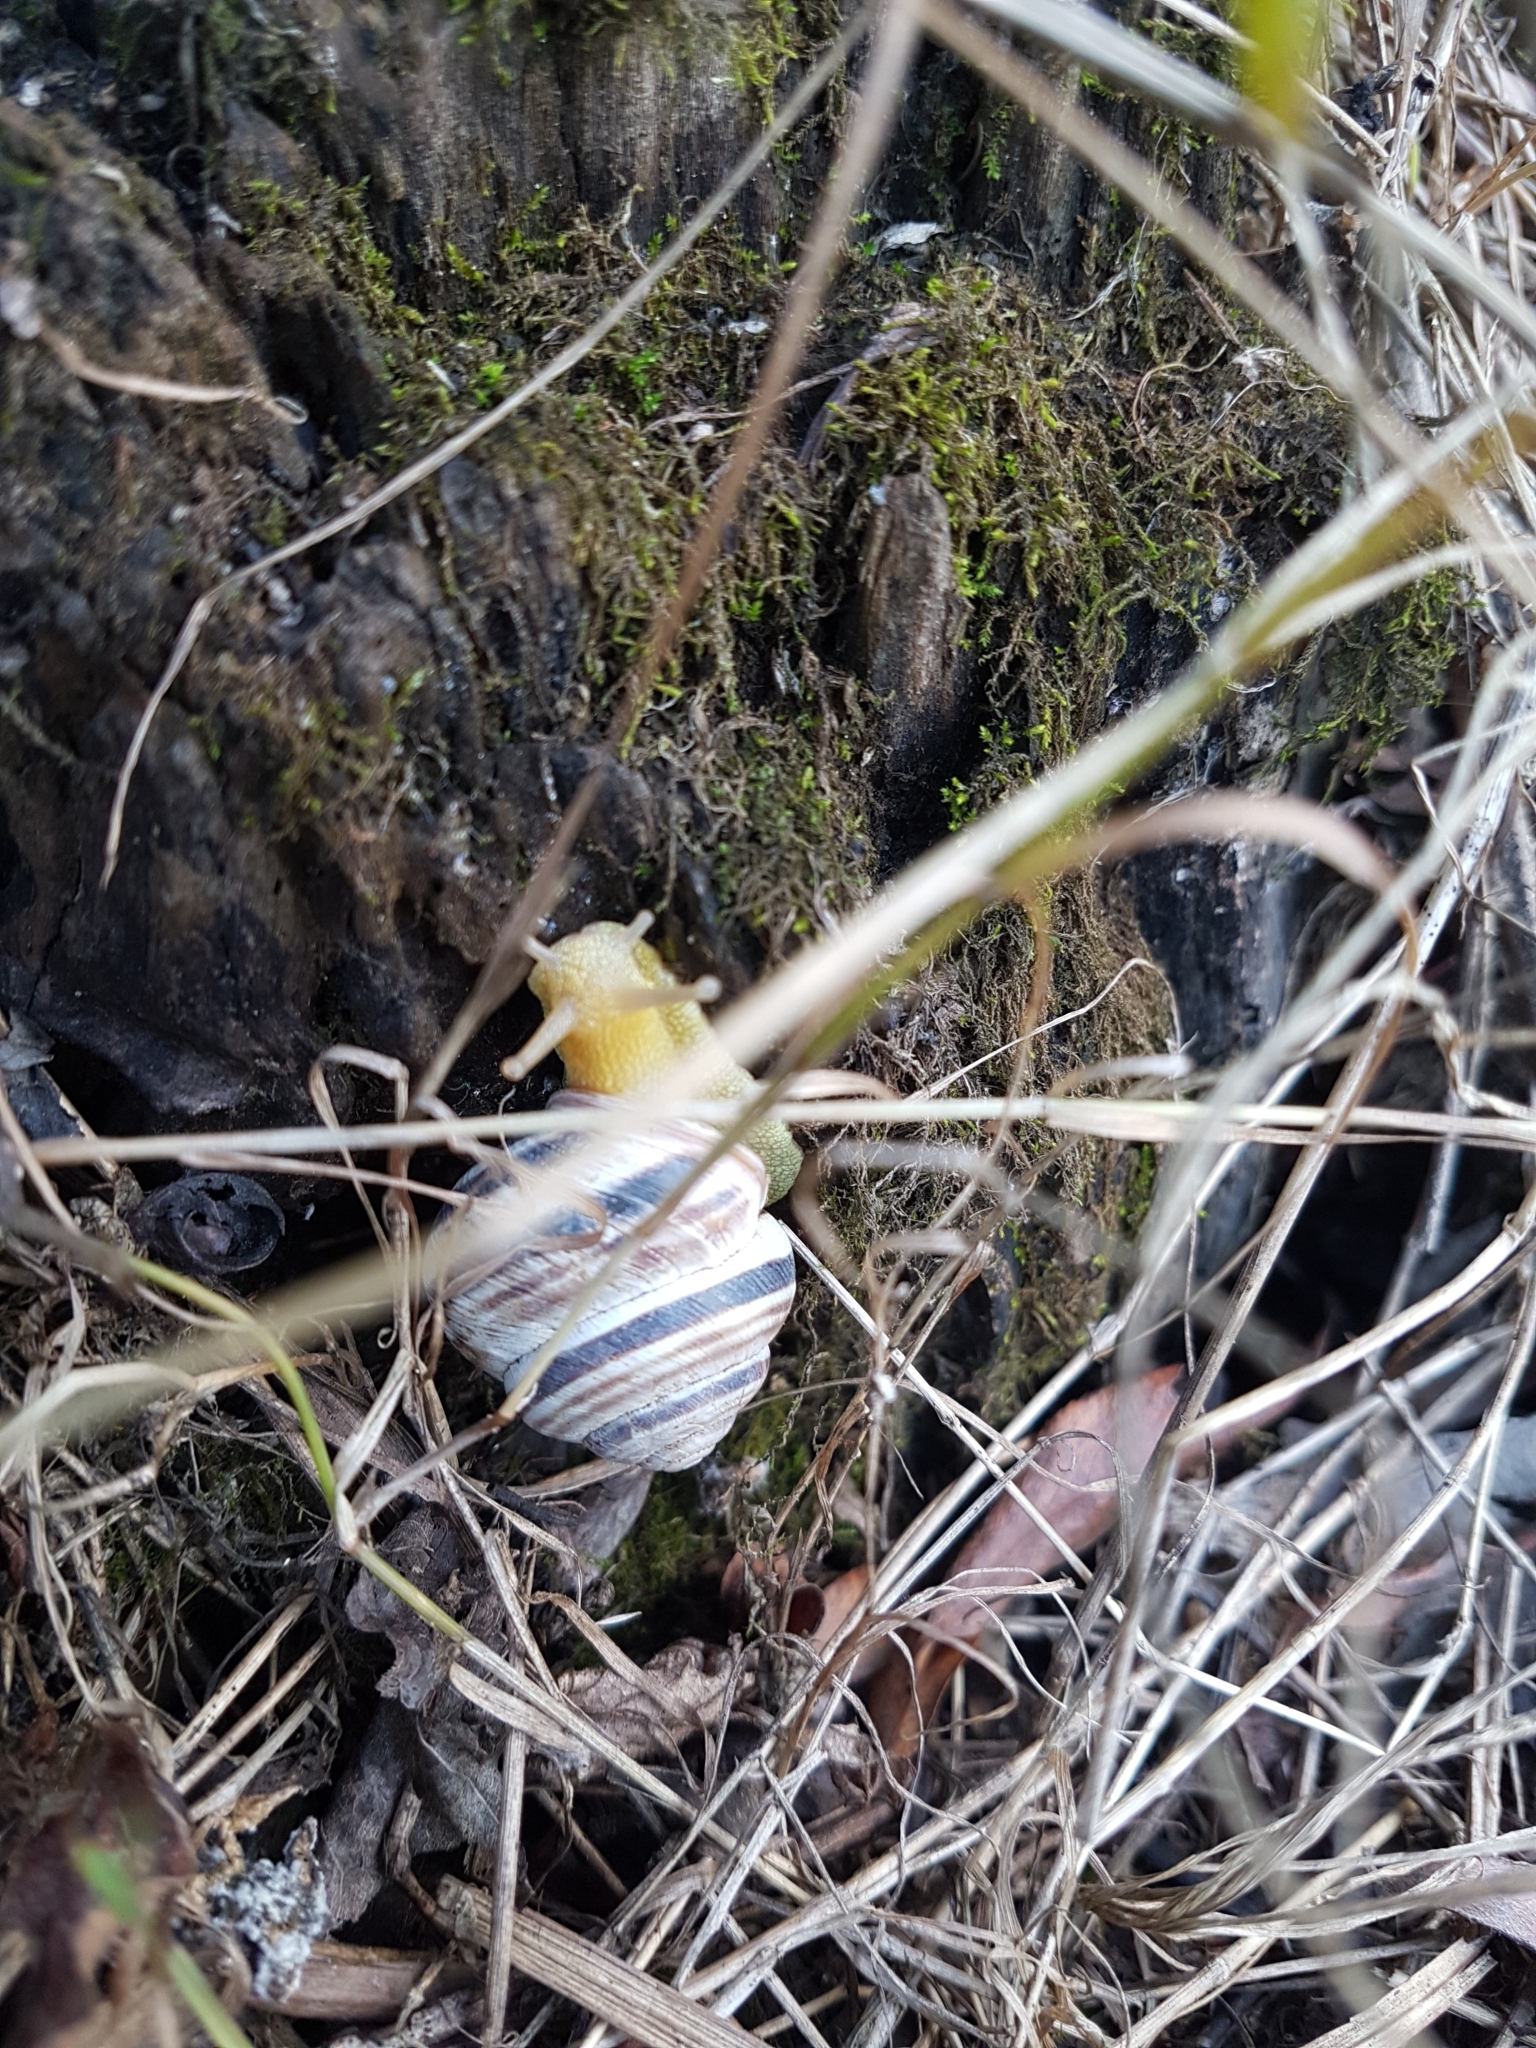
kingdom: Animalia
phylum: Mollusca
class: Gastropoda
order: Stylommatophora
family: Helicidae
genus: Caucasotachea
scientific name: Caucasotachea vindobonensis
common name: European helicid land snail
